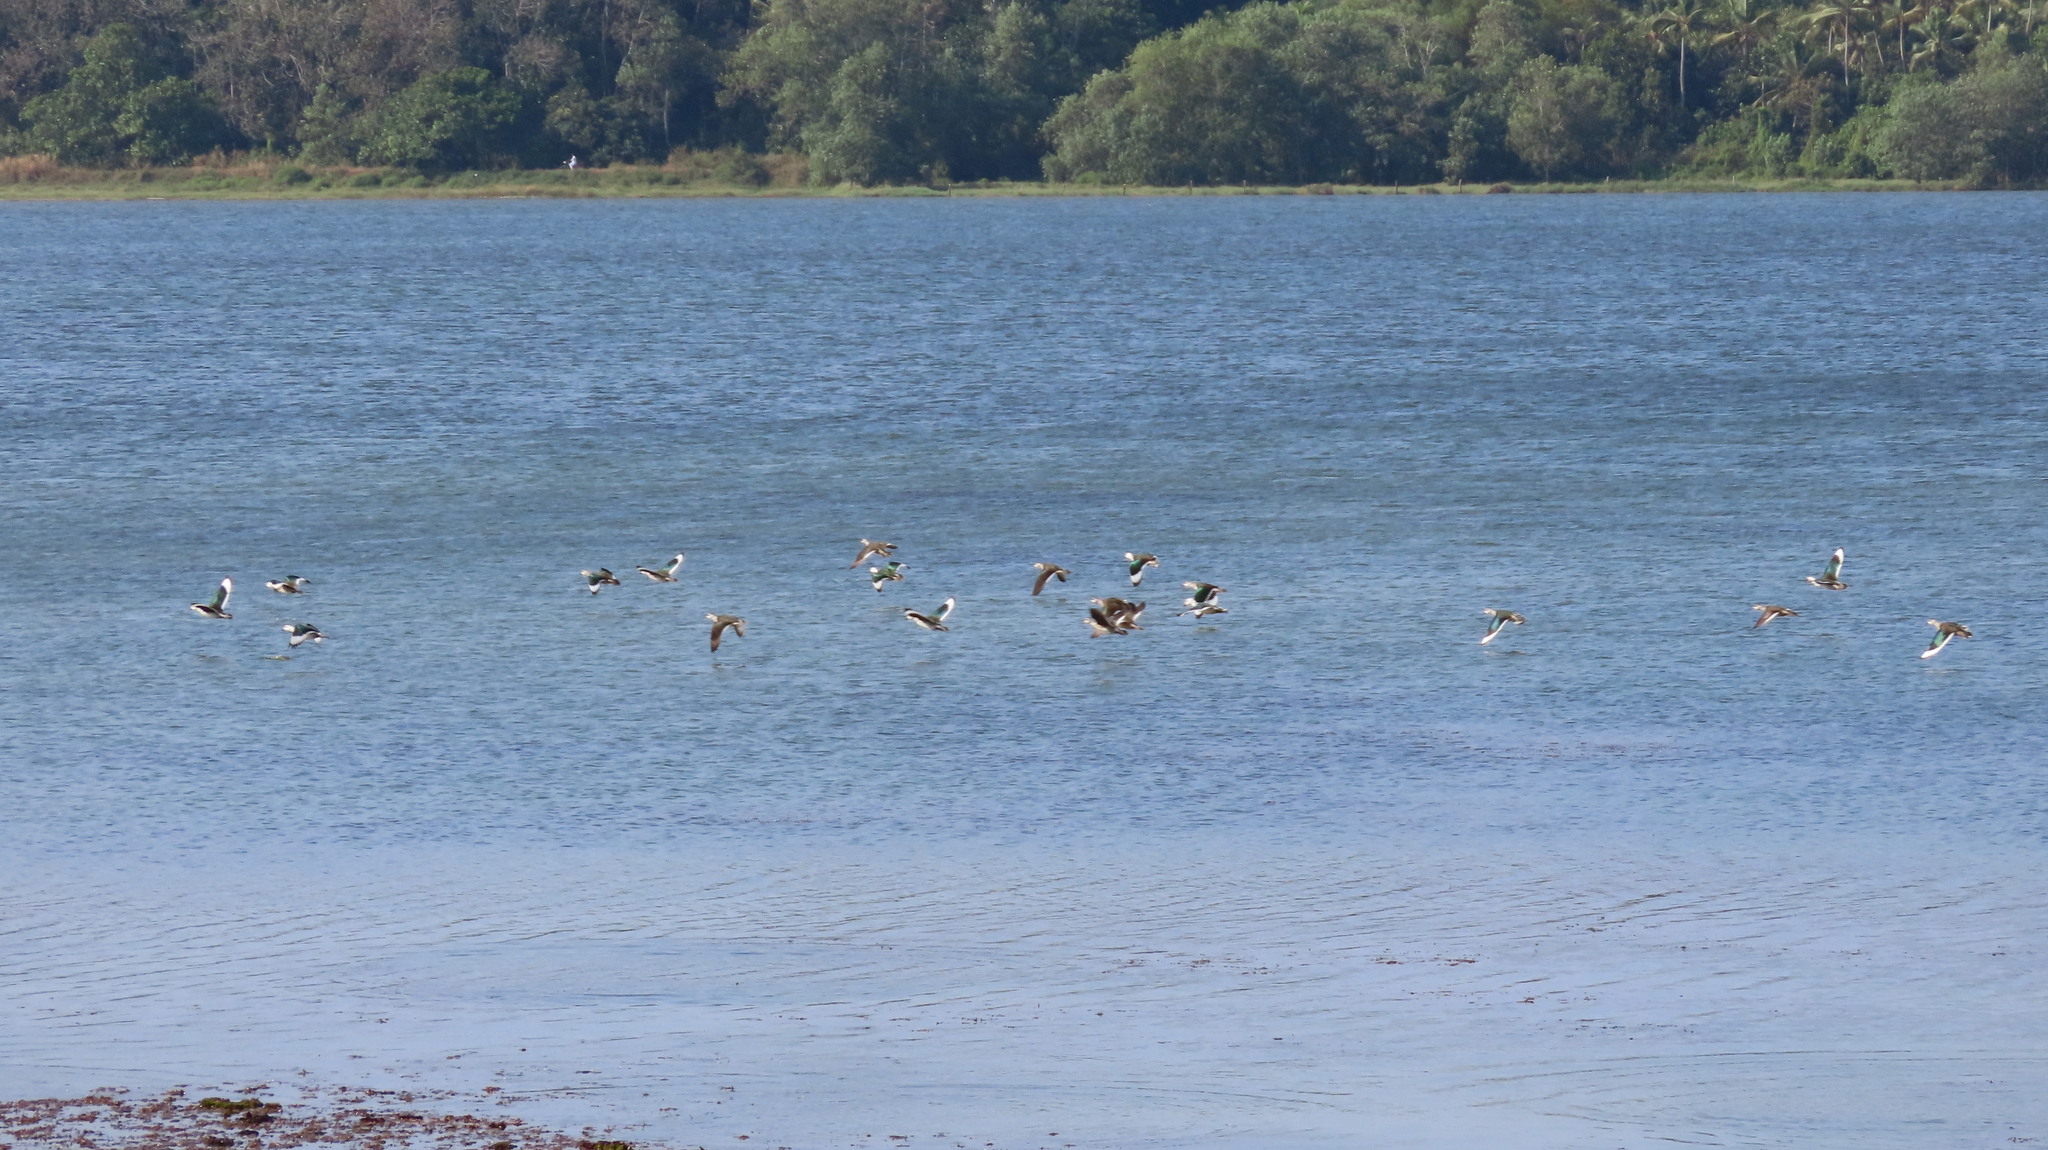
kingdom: Animalia
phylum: Chordata
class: Aves
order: Anseriformes
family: Anatidae
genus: Nettapus
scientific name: Nettapus coromandelianus
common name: Cotton pygmy-goose
